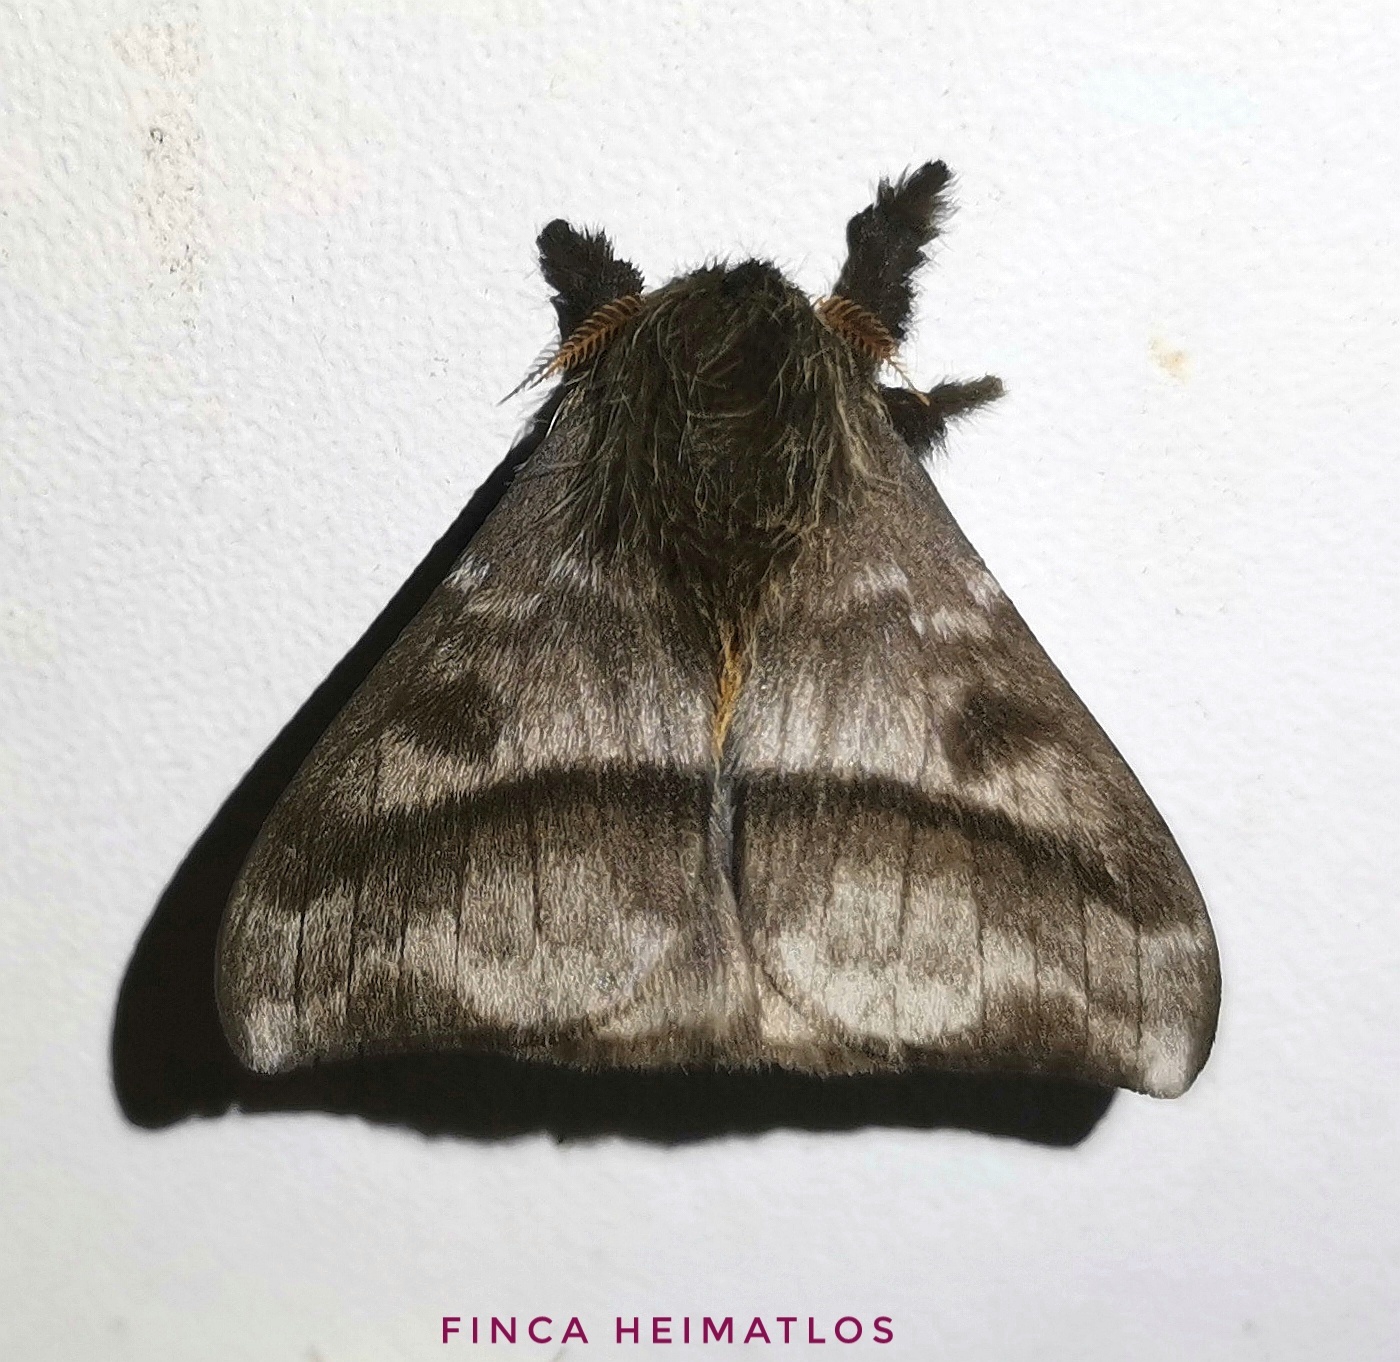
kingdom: Animalia
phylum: Arthropoda
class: Insecta
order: Lepidoptera
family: Saturniidae
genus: Hylesia
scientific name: Hylesia falcifera
